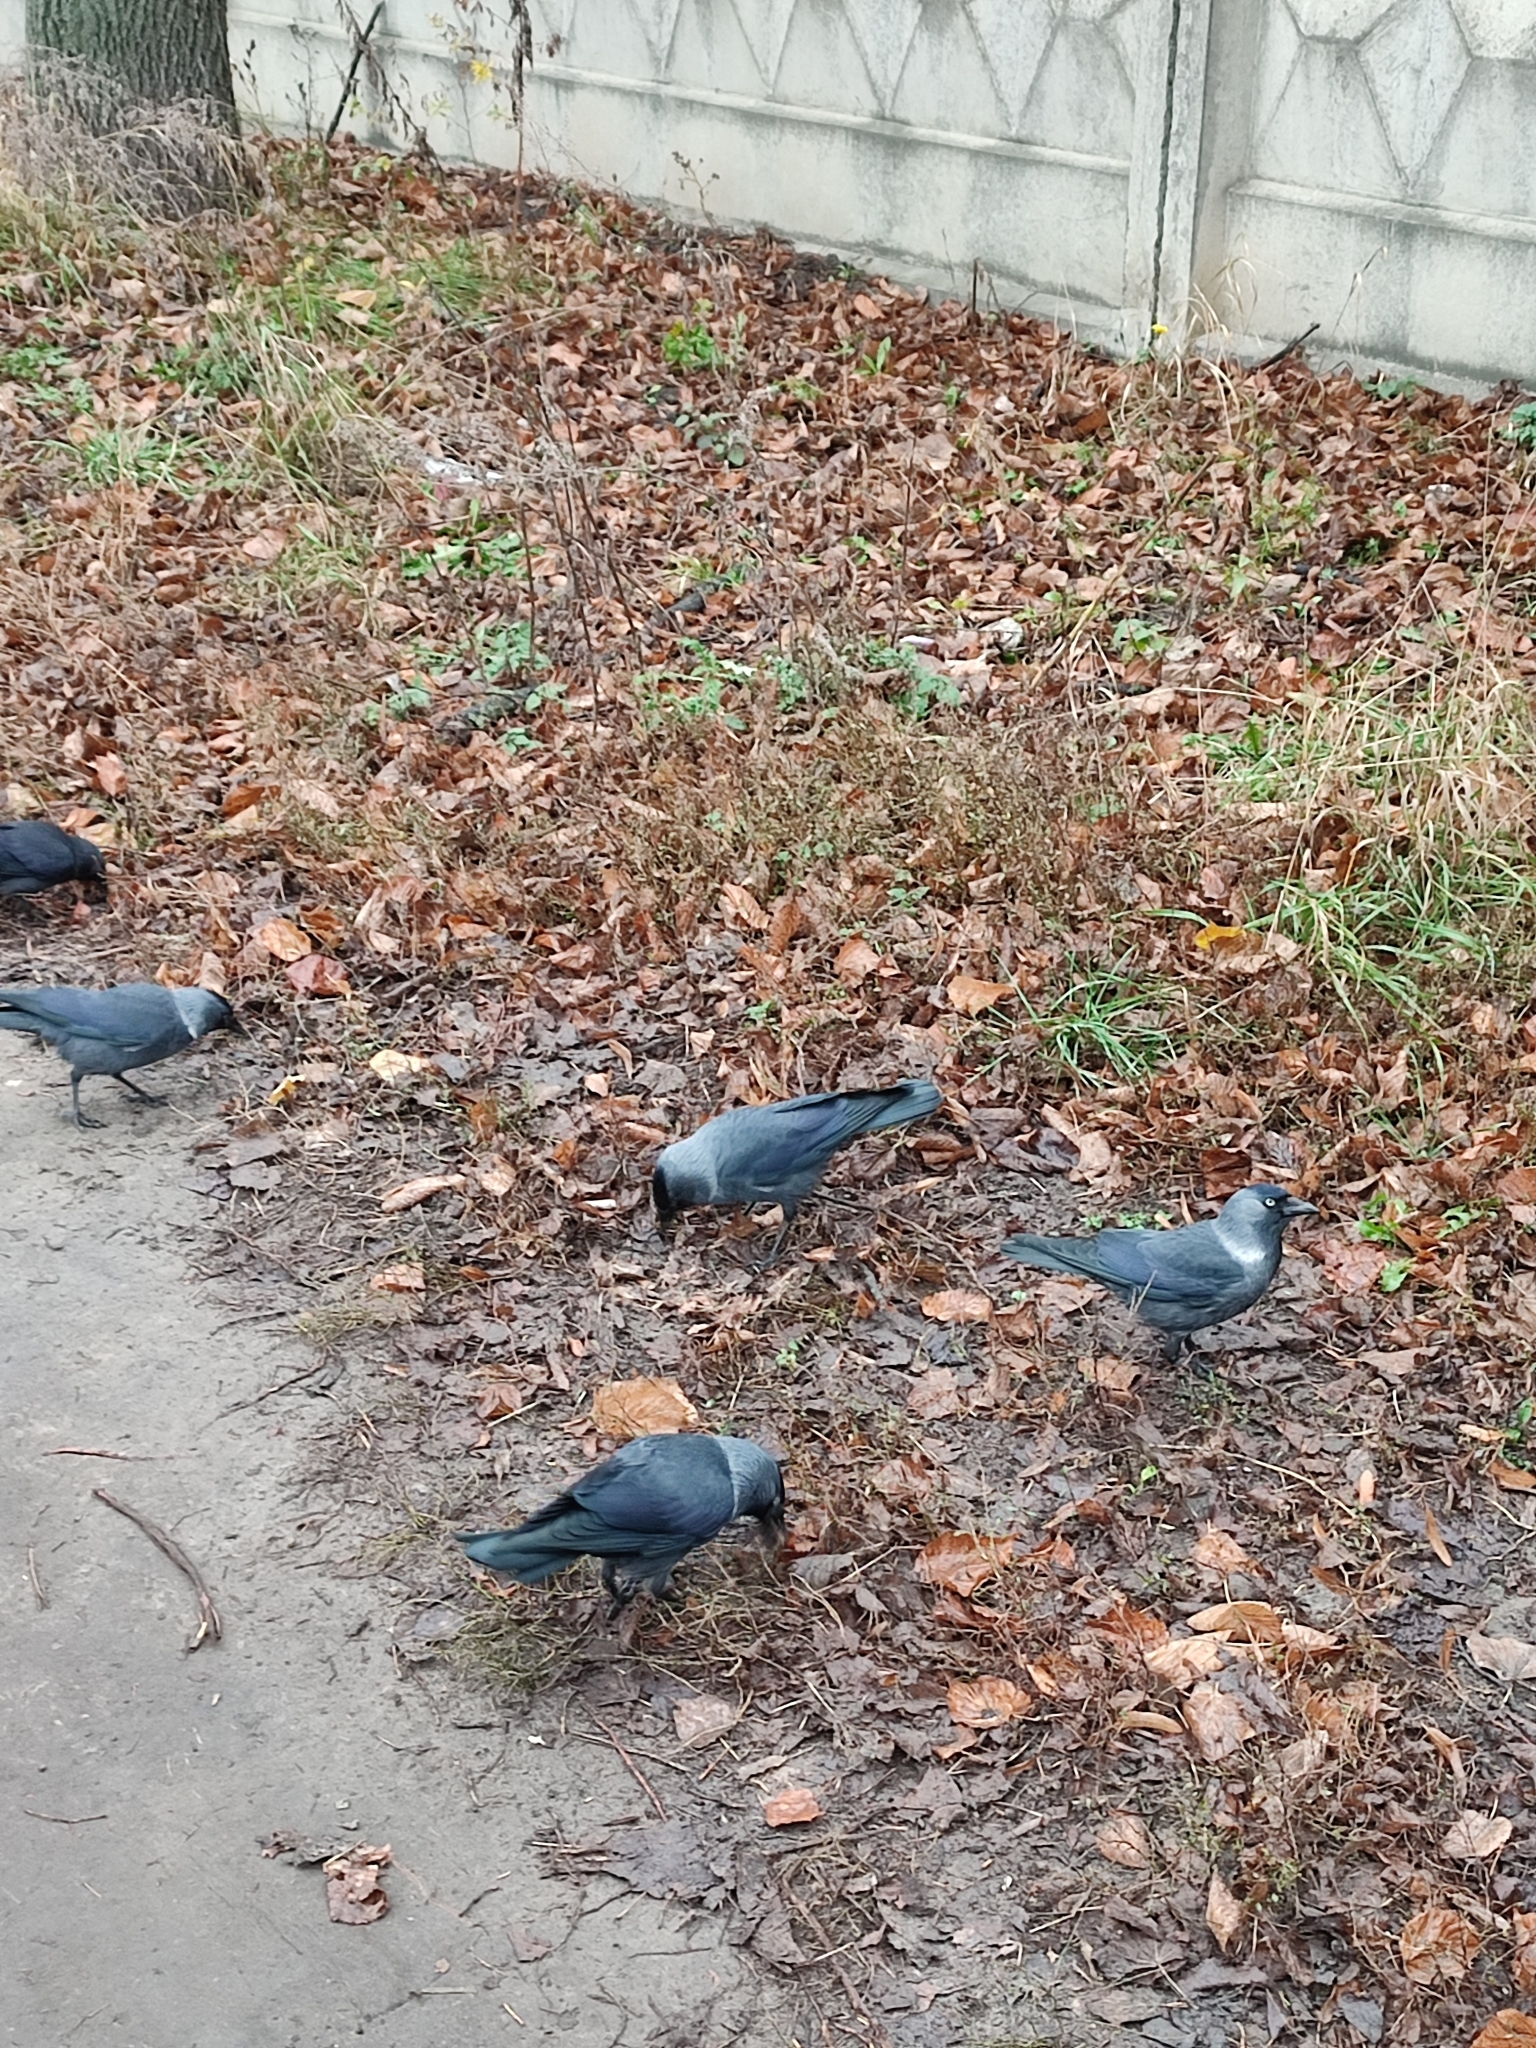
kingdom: Animalia
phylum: Chordata
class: Aves
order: Passeriformes
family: Corvidae
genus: Coloeus
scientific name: Coloeus monedula
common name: Western jackdaw
